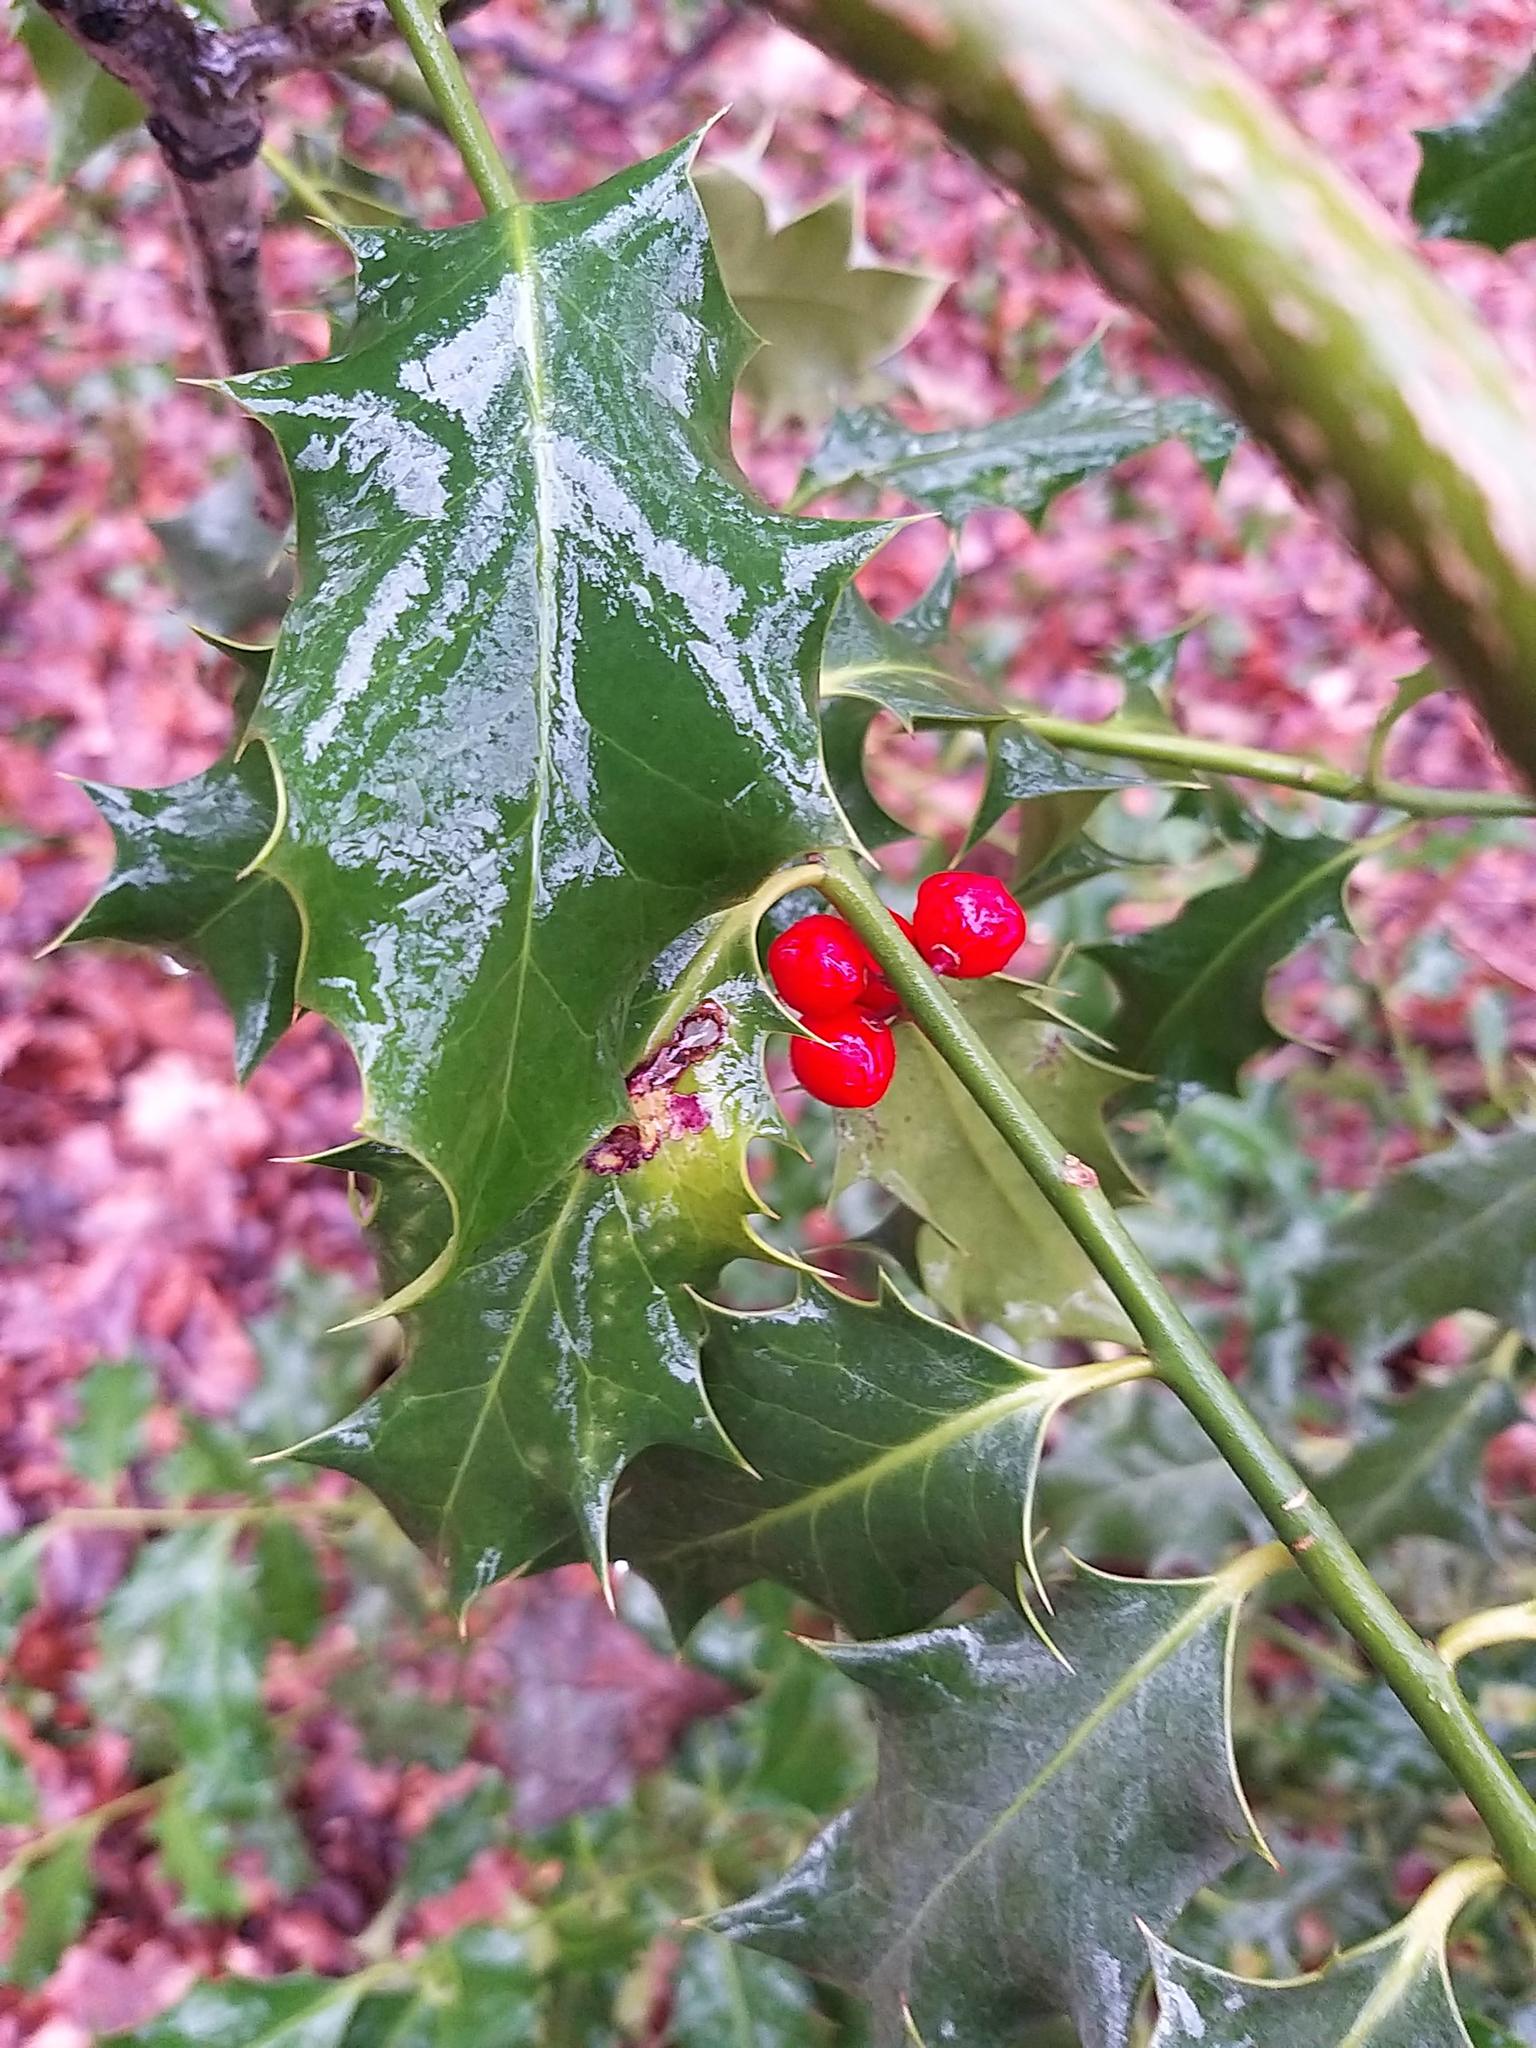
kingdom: Plantae
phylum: Tracheophyta
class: Magnoliopsida
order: Aquifoliales
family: Aquifoliaceae
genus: Ilex
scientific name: Ilex aquifolium
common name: English holly
